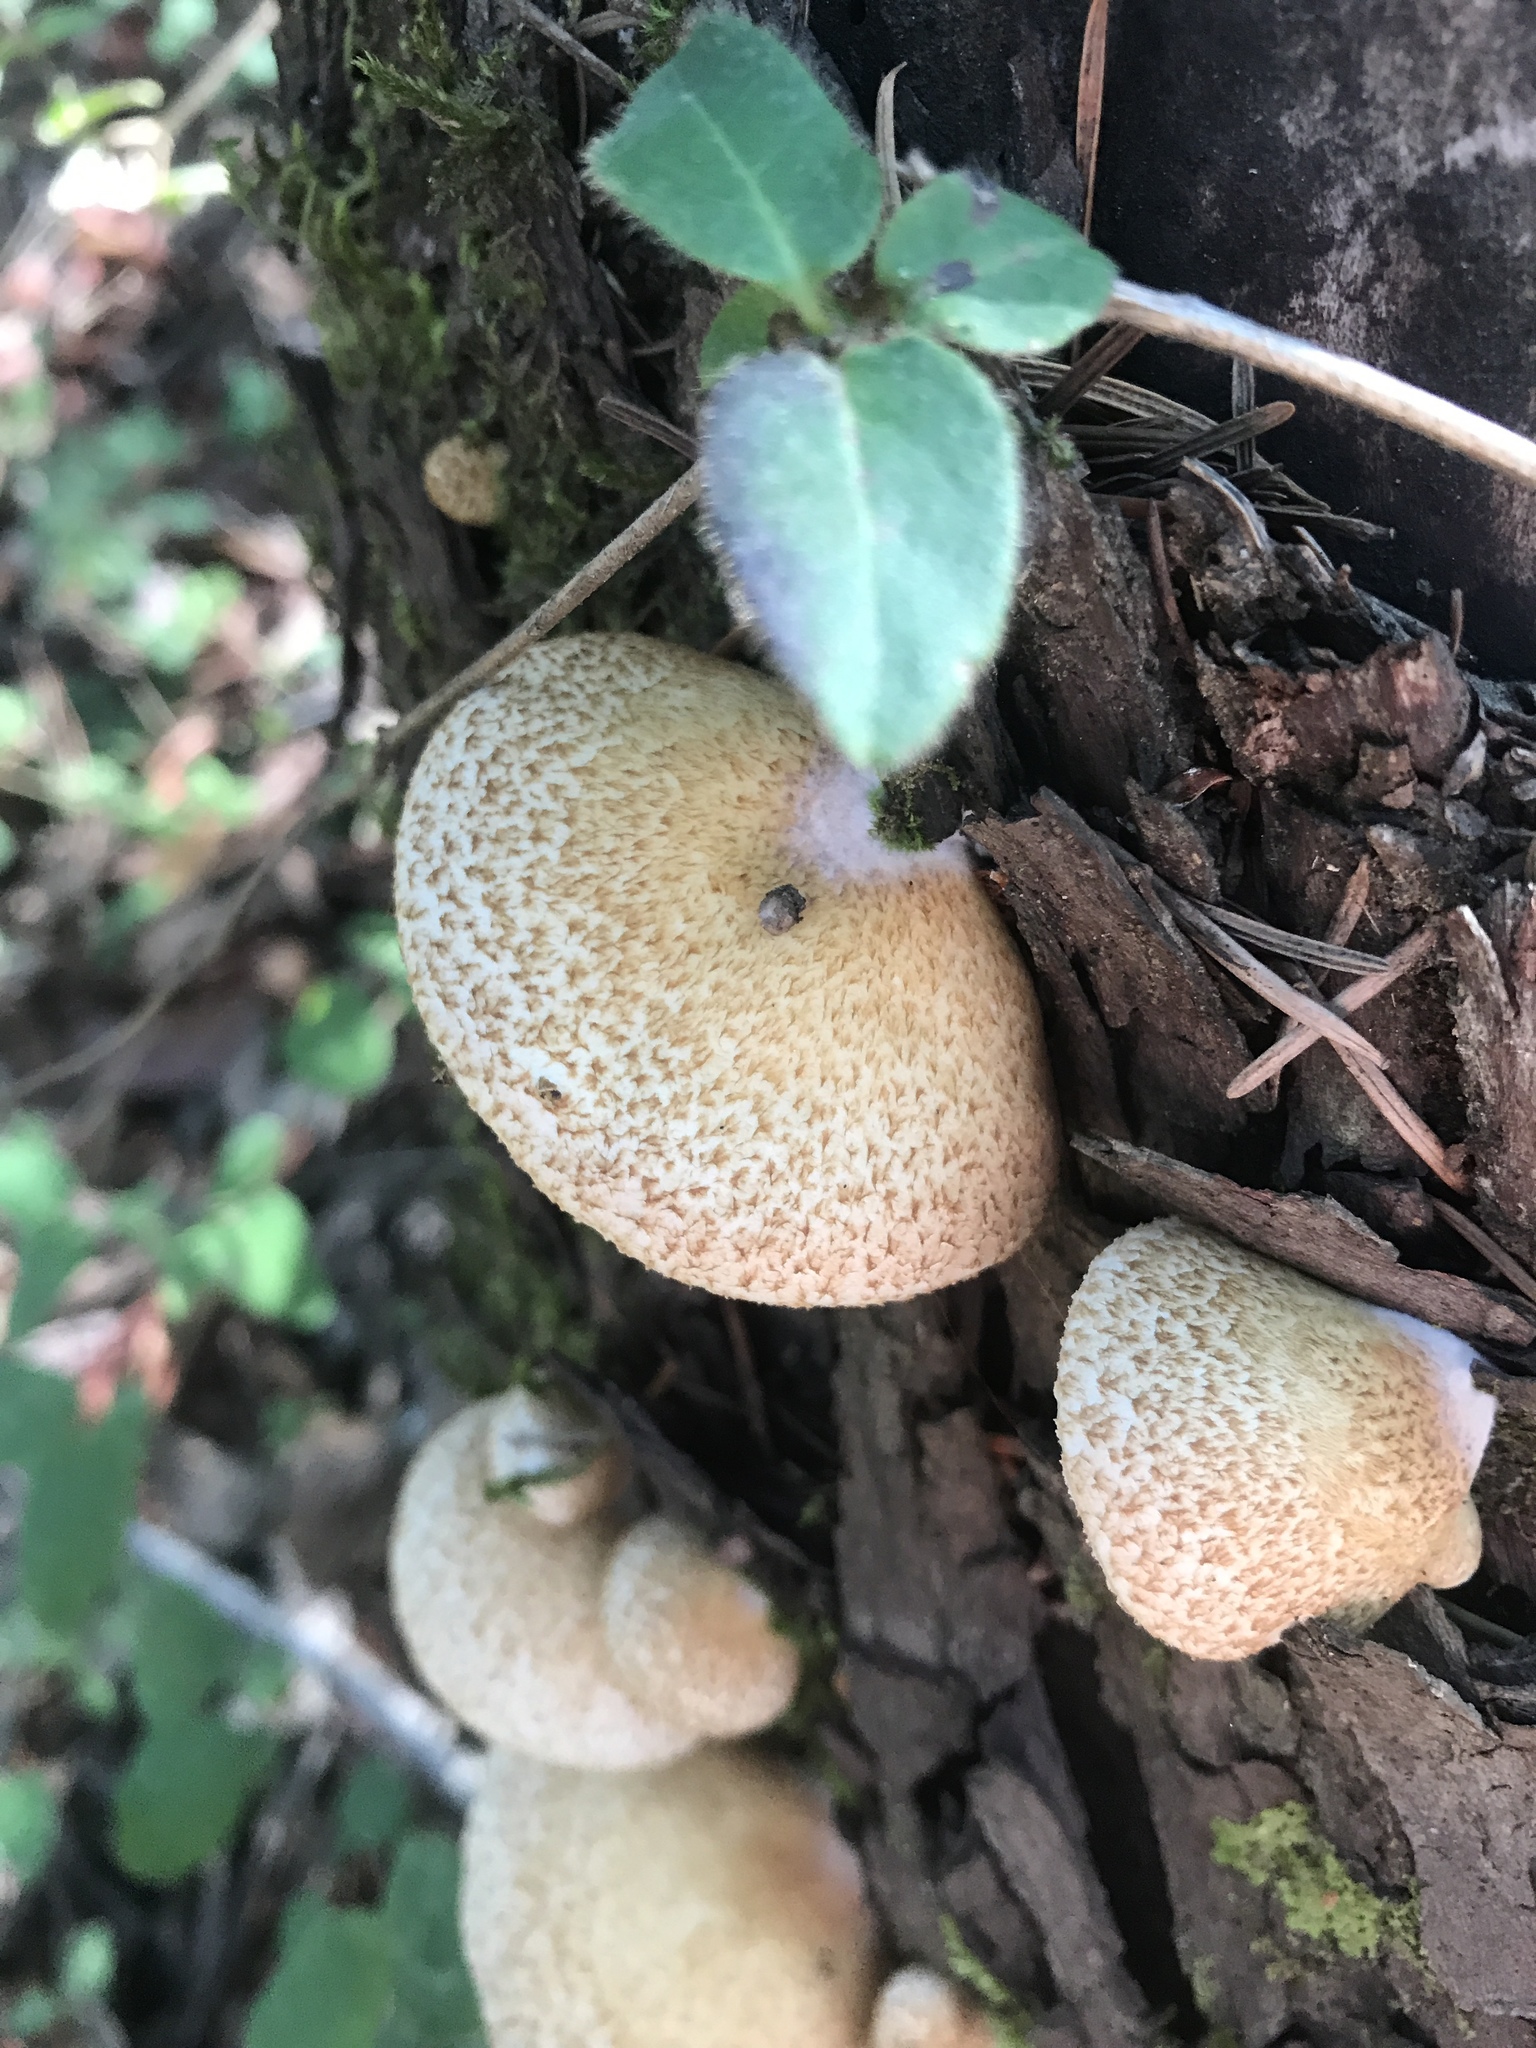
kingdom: Fungi
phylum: Basidiomycota
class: Agaricomycetes
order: Agaricales
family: Crepidotaceae
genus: Crepidotus
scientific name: Crepidotus mollis
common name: Peeling oysterling
